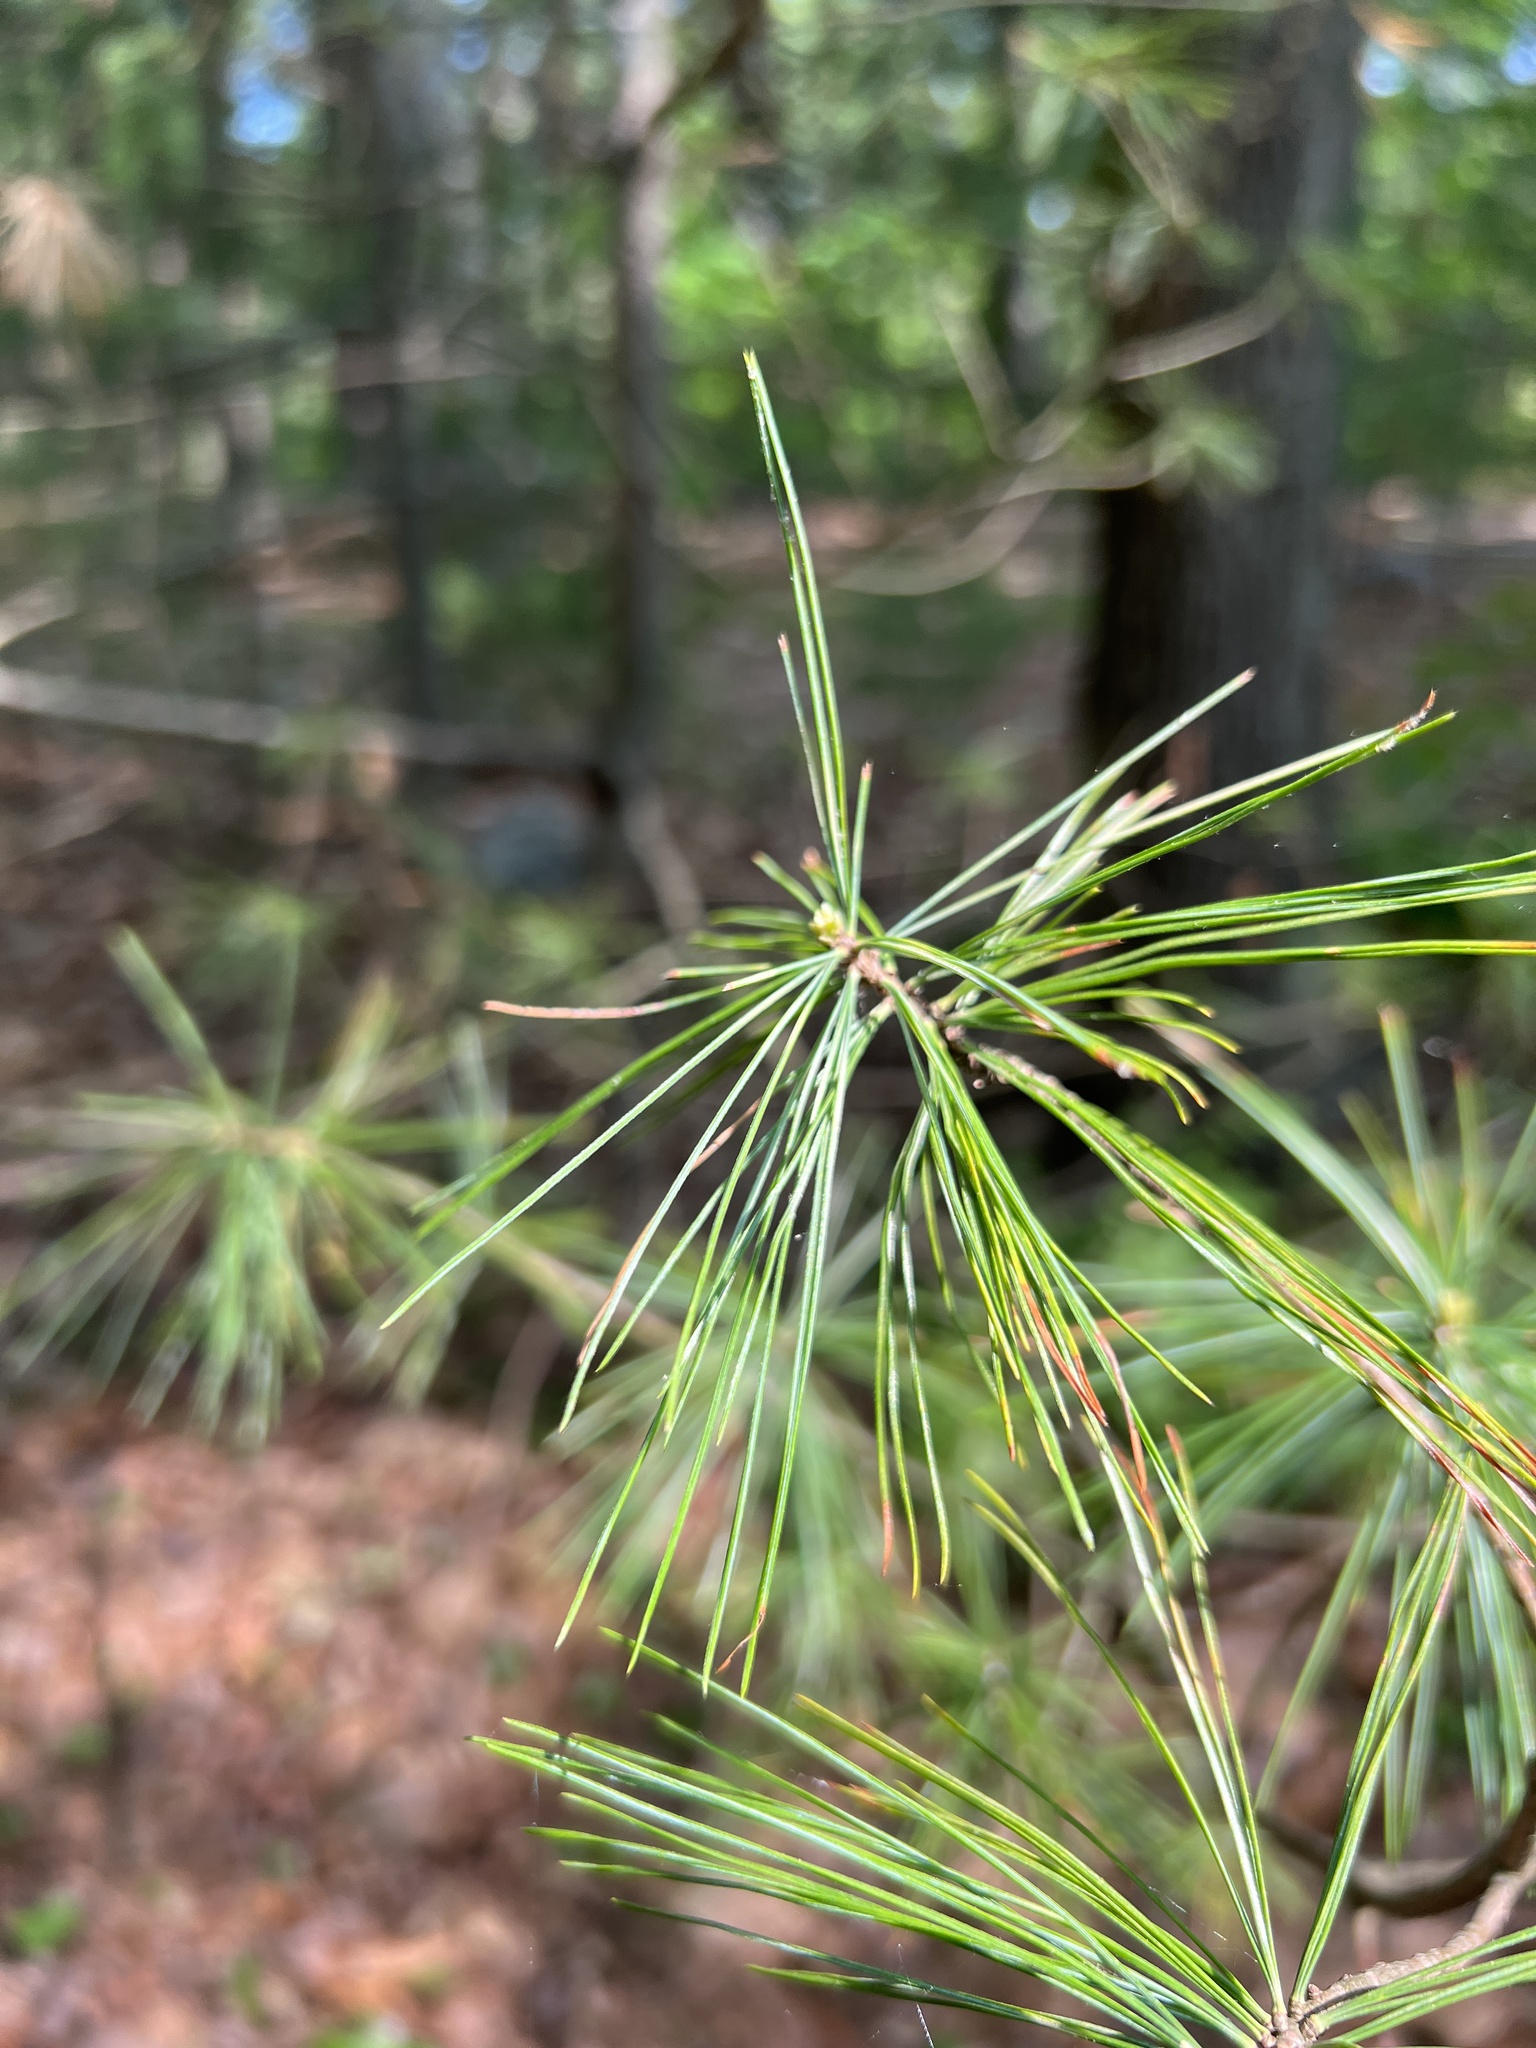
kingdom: Plantae
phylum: Tracheophyta
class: Pinopsida
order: Pinales
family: Pinaceae
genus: Pinus
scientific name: Pinus strobus
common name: Weymouth pine
